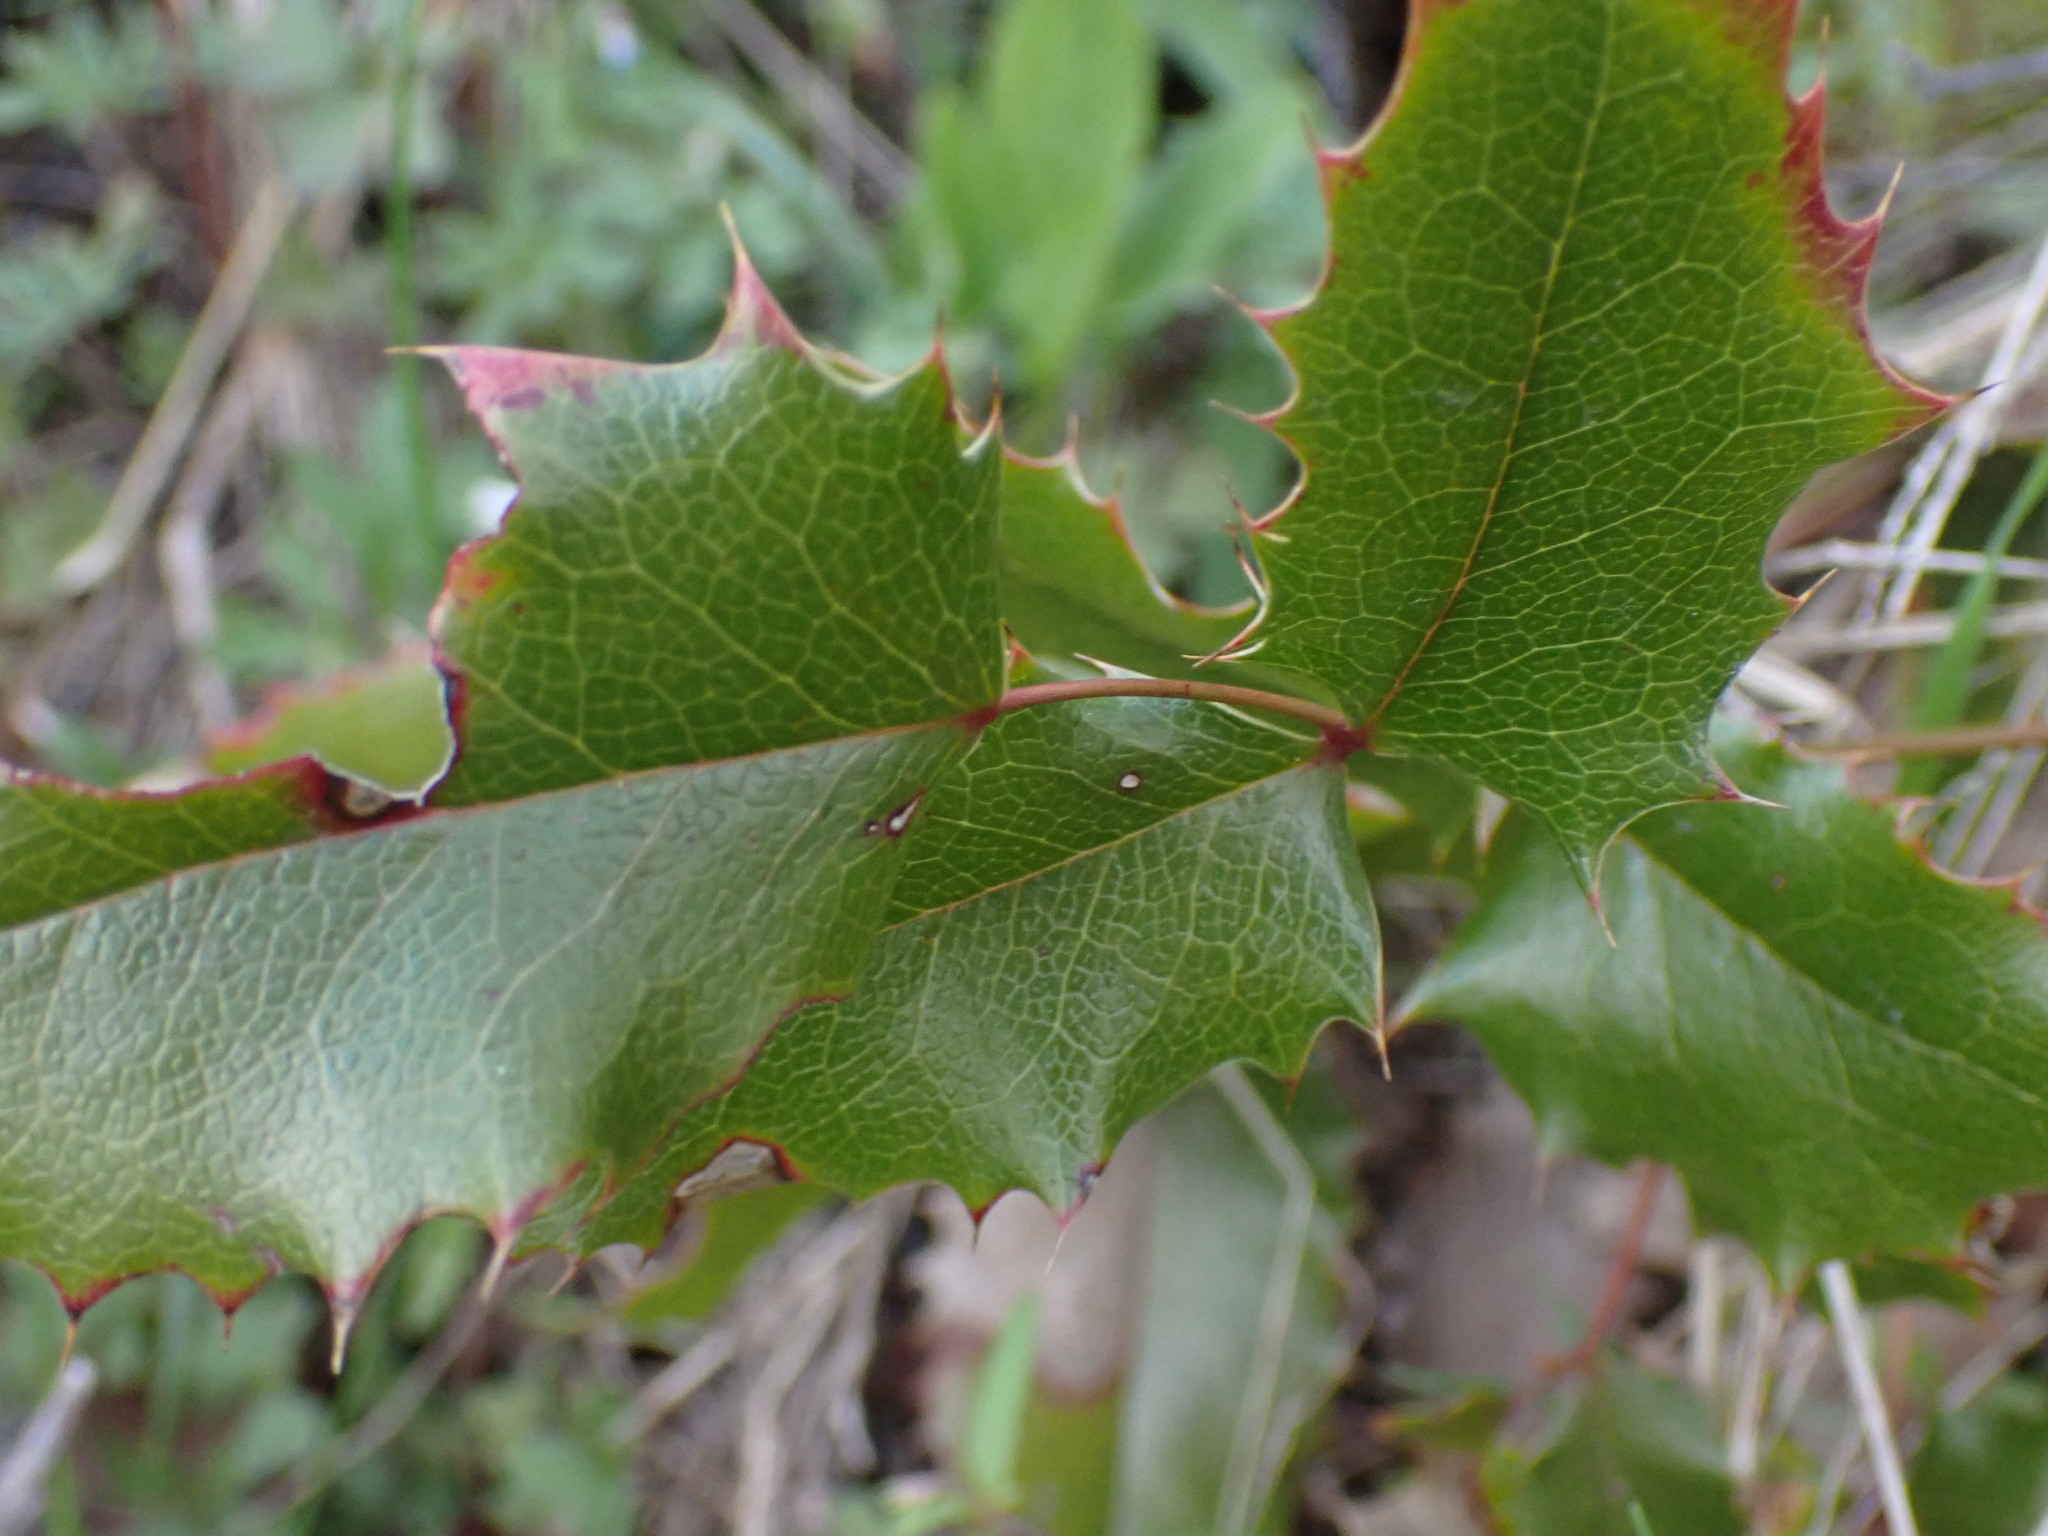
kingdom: Plantae
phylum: Tracheophyta
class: Magnoliopsida
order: Ranunculales
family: Berberidaceae
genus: Mahonia
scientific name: Mahonia aquifolium
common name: Oregon-grape
